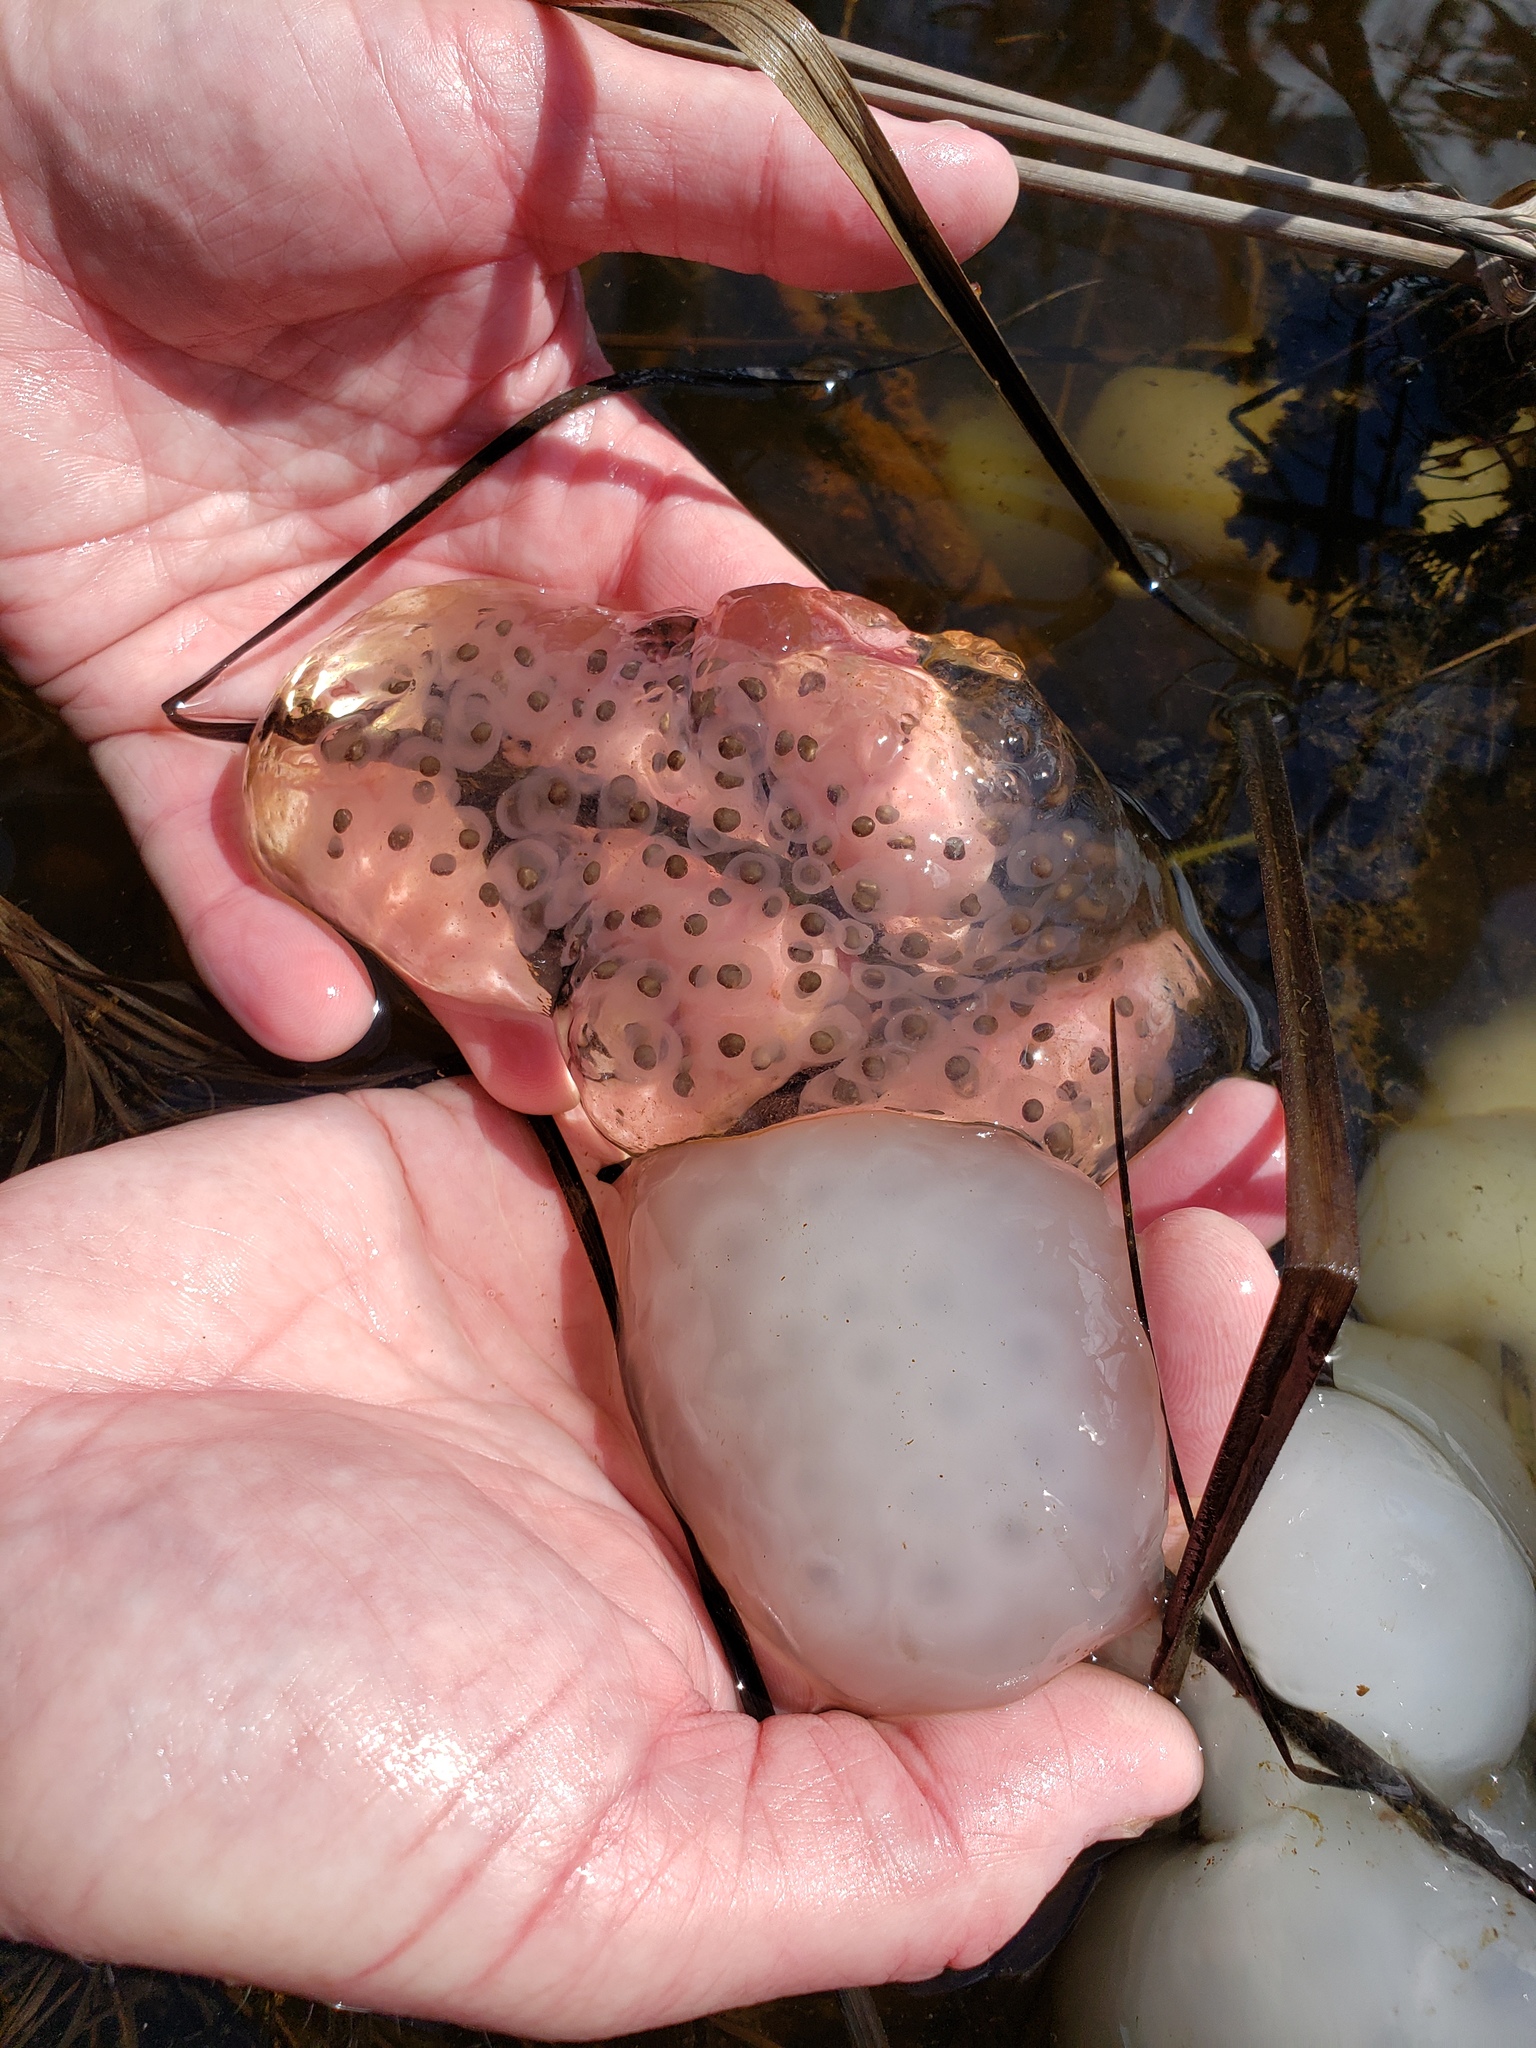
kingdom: Animalia
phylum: Chordata
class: Amphibia
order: Caudata
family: Ambystomatidae
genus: Ambystoma
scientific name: Ambystoma maculatum
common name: Spotted salamander
